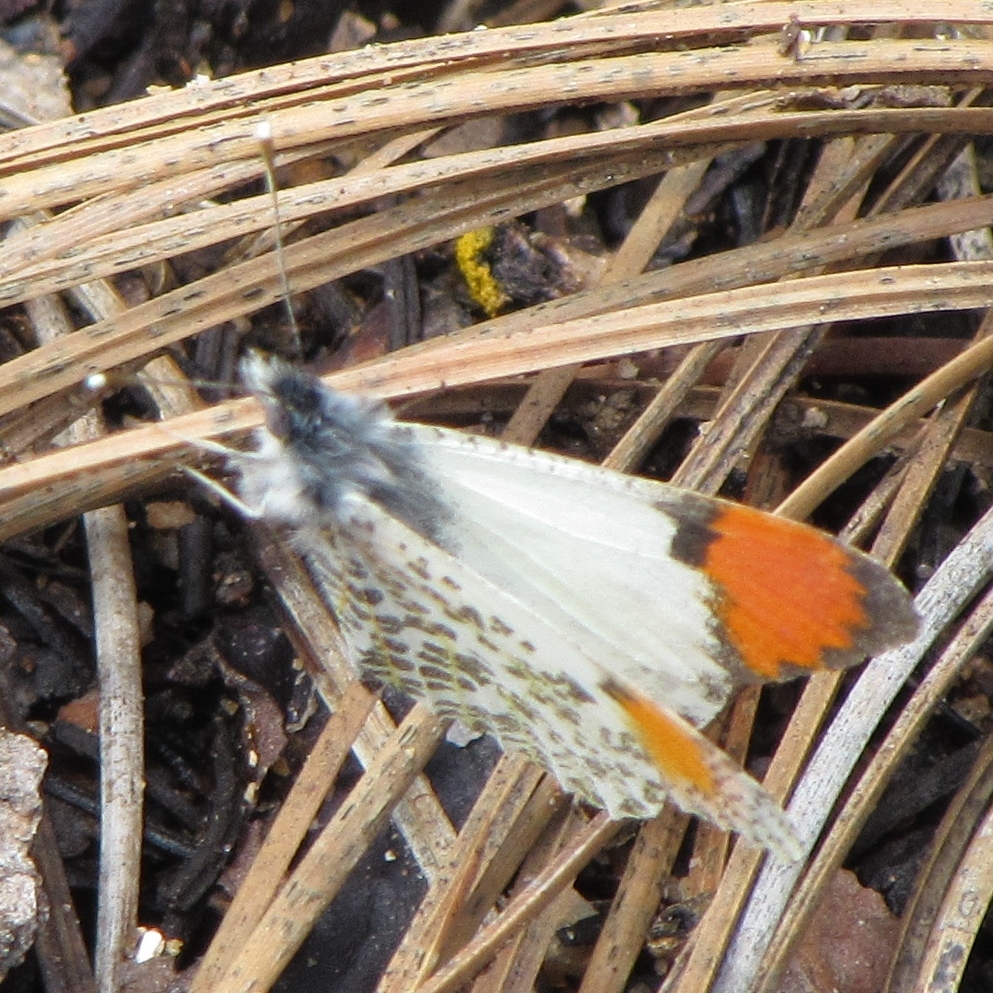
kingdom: Animalia
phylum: Arthropoda
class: Insecta
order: Lepidoptera
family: Pieridae
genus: Anthocharis
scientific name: Anthocharis sara
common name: Sara's orangetip
